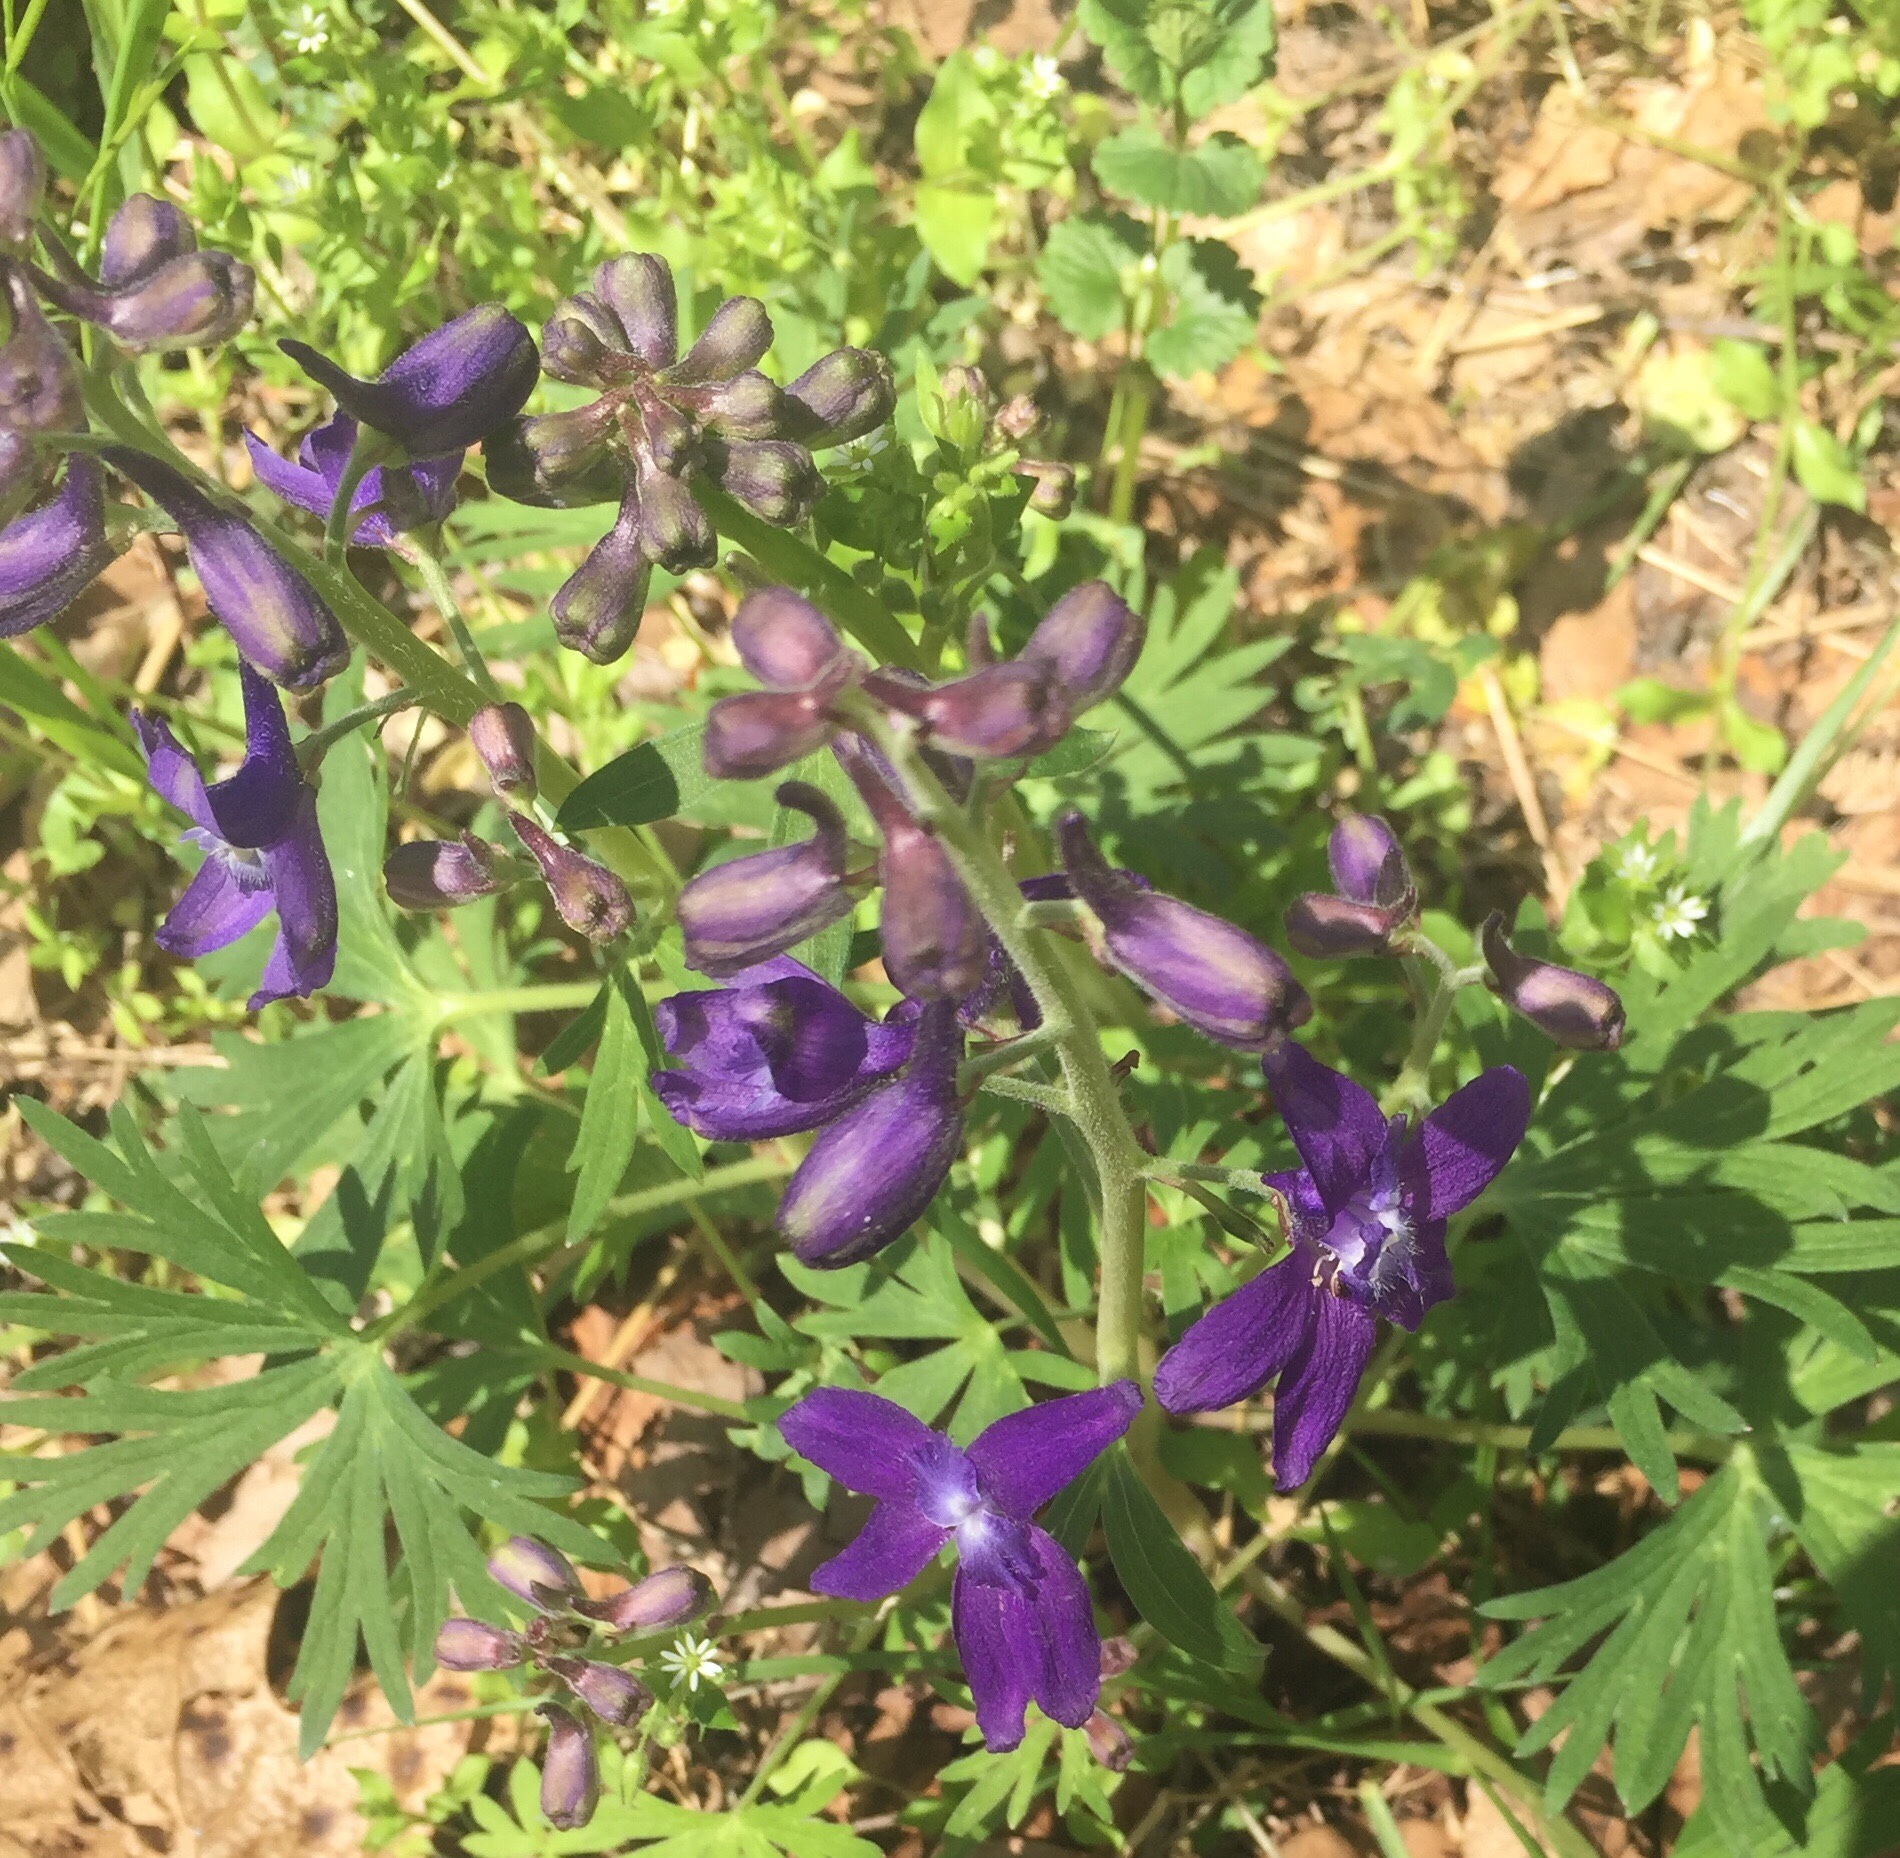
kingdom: Plantae
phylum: Tracheophyta
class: Magnoliopsida
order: Ranunculales
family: Ranunculaceae
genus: Delphinium
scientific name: Delphinium tricorne
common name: Dwarf larkspur
